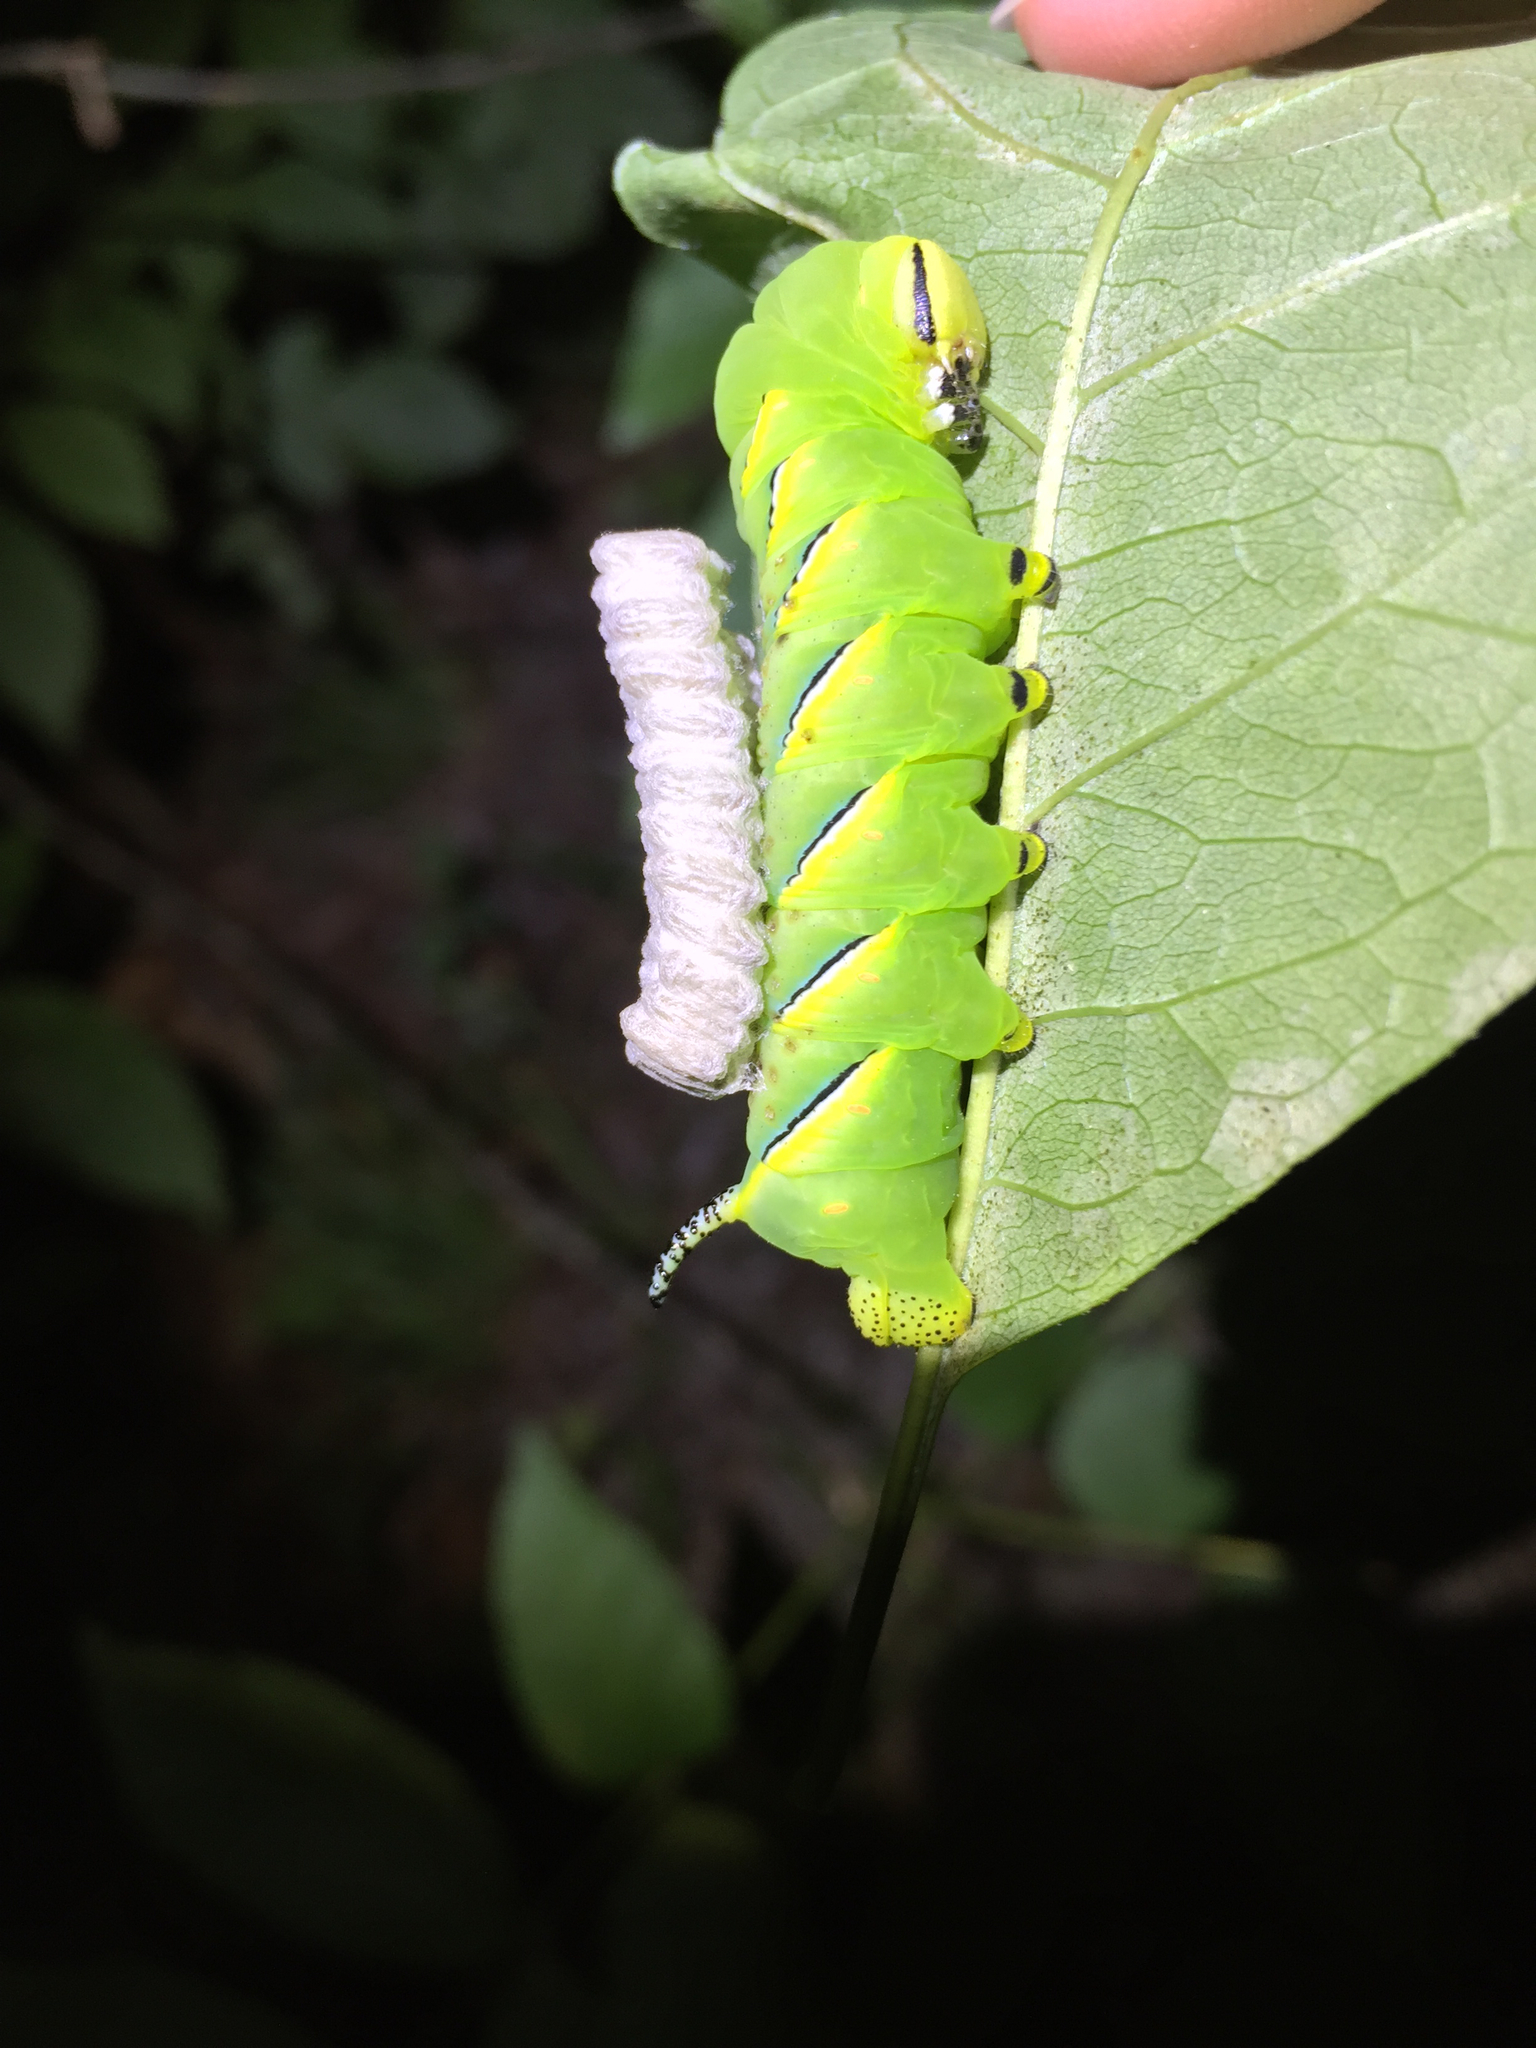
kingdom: Animalia
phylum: Arthropoda
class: Insecta
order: Lepidoptera
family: Sphingidae
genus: Sphinx
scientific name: Sphinx kalmiae
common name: Laurel sphinx
